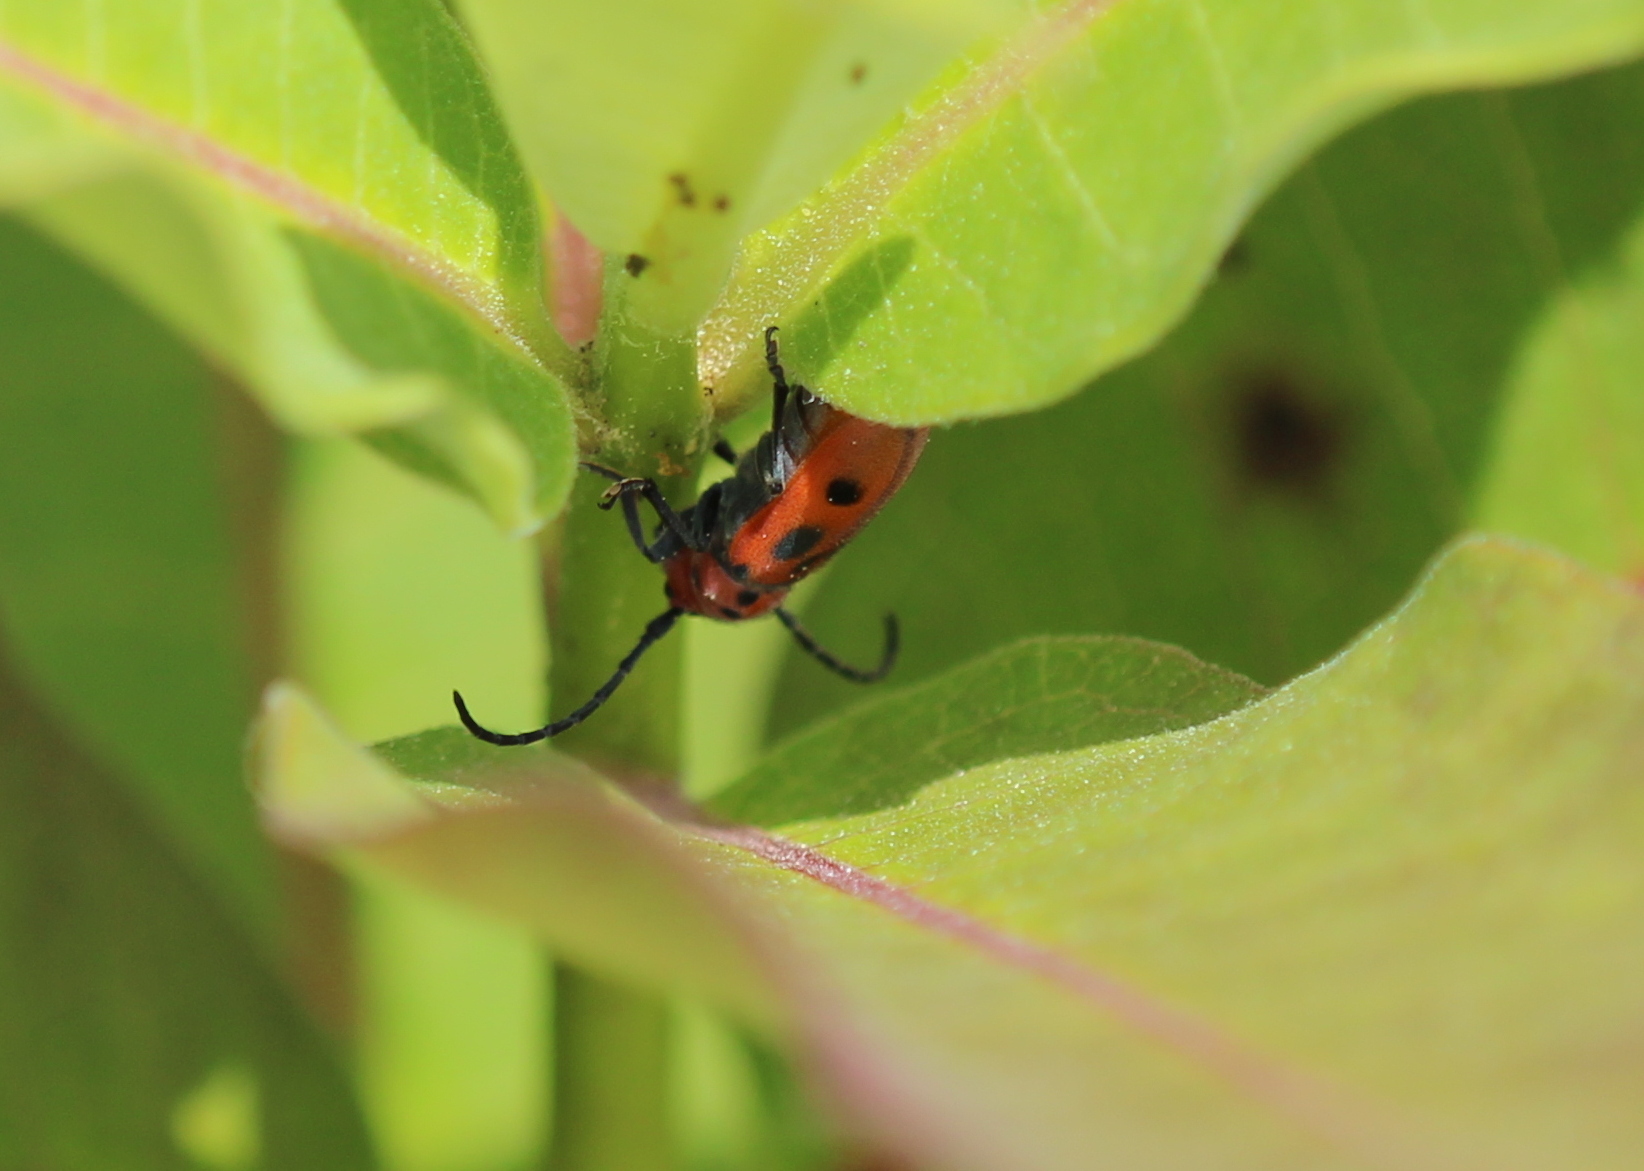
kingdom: Animalia
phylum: Arthropoda
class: Insecta
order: Coleoptera
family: Cerambycidae
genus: Tetraopes
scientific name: Tetraopes tetrophthalmus
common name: Red milkweed beetle
